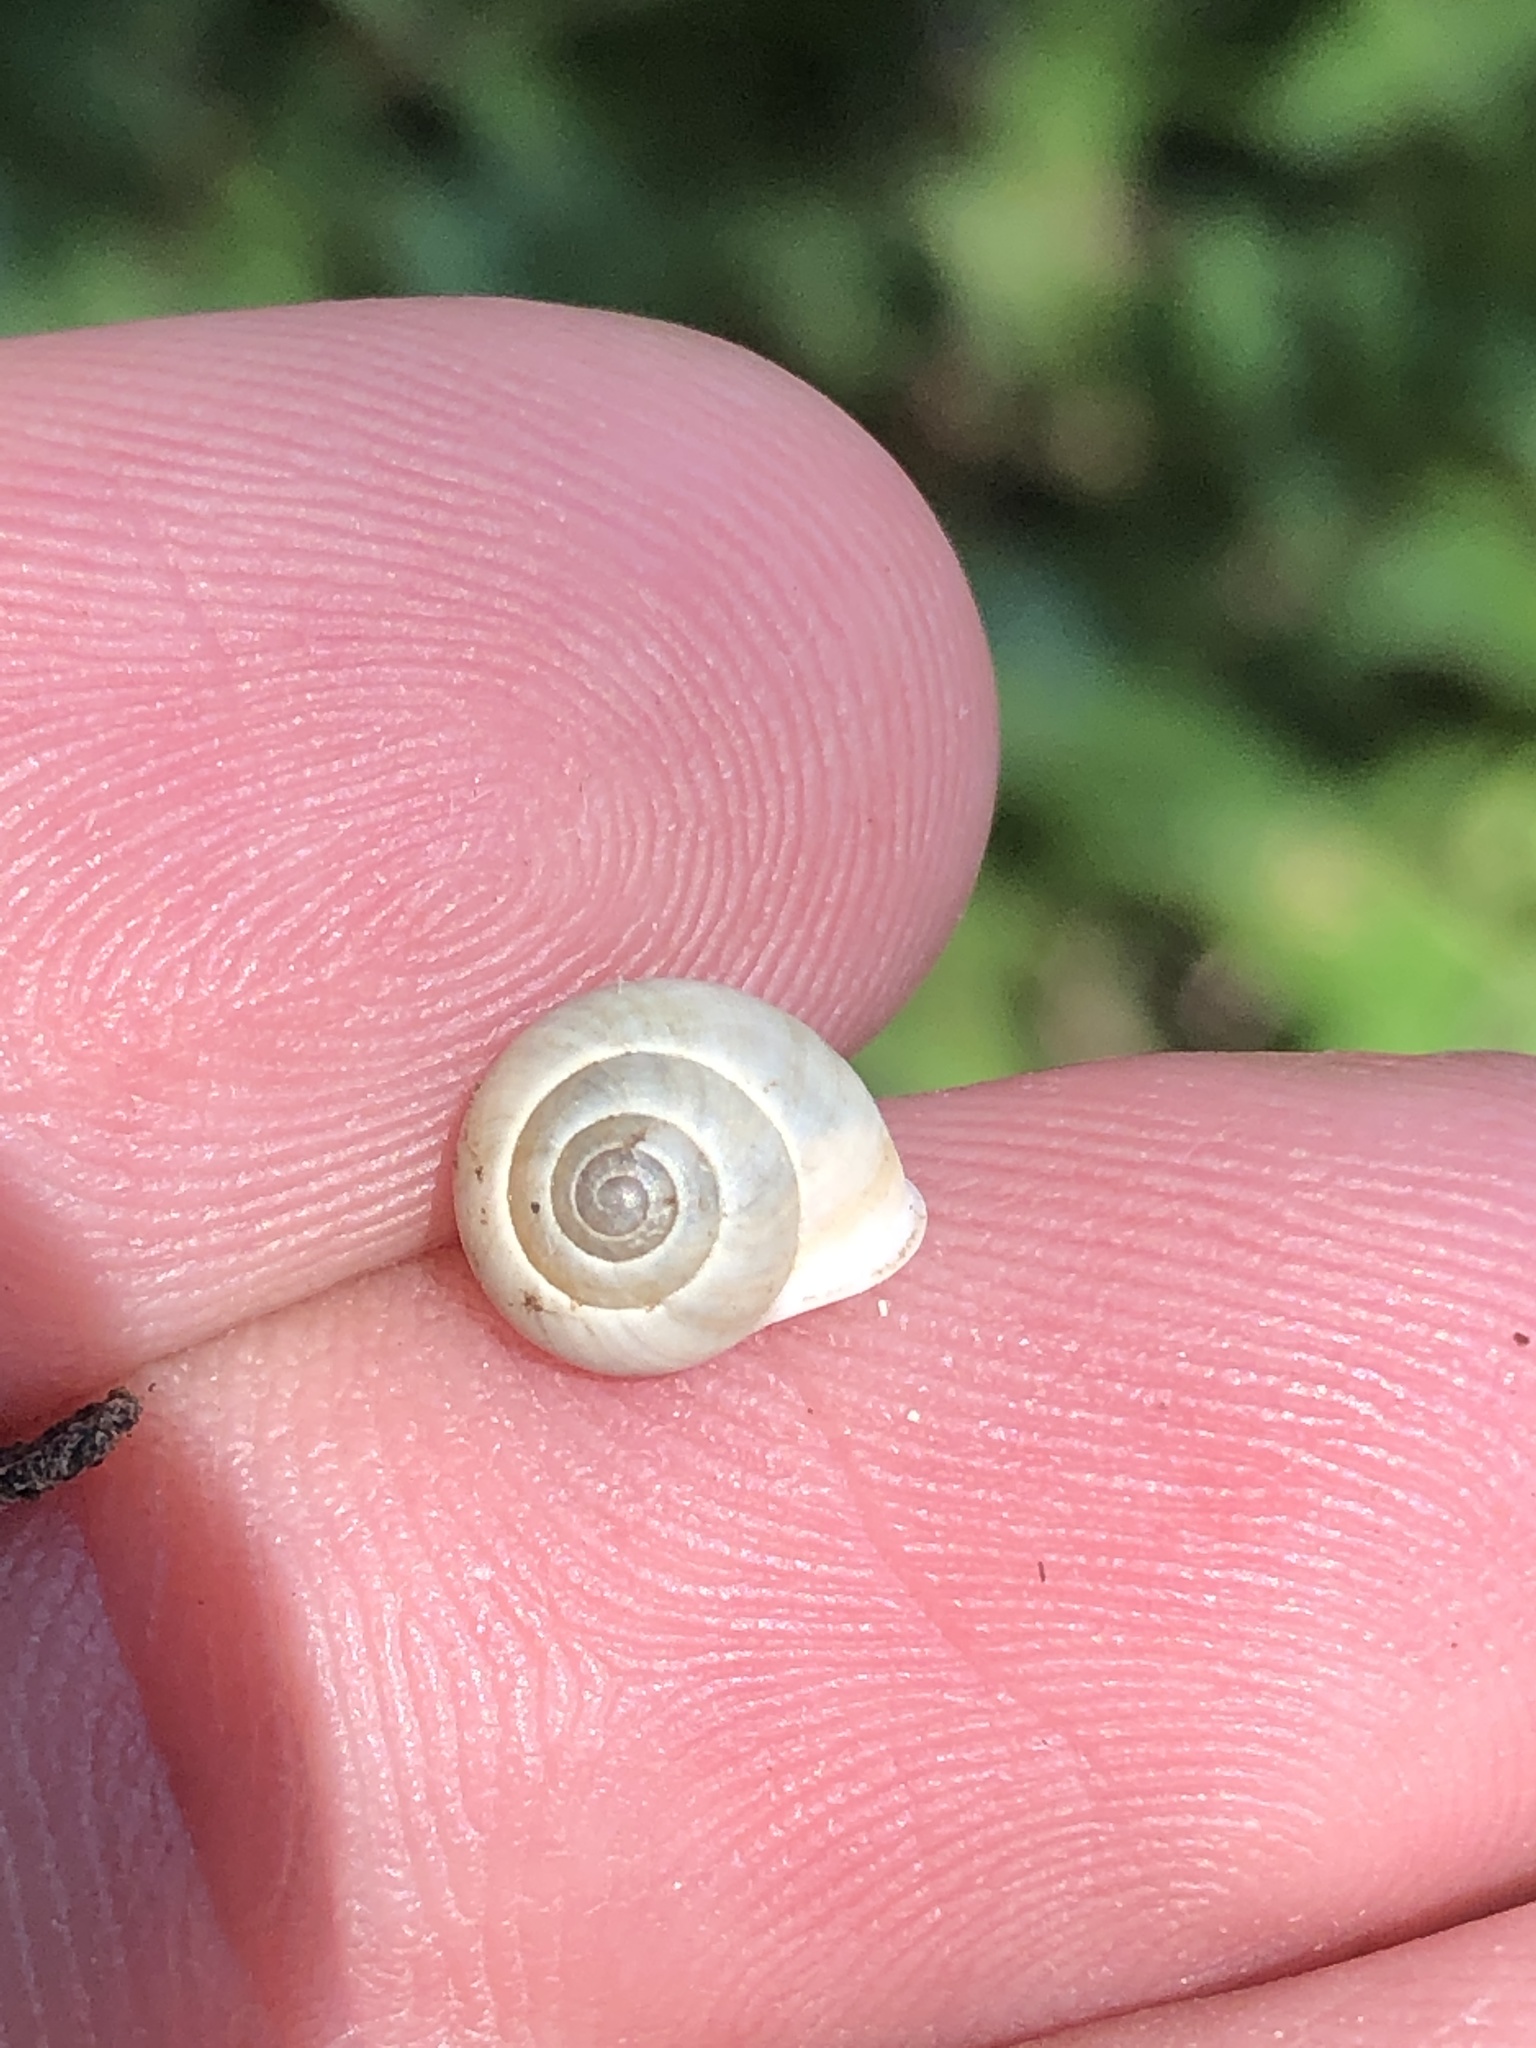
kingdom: Animalia
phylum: Mollusca
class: Gastropoda
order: Cycloneritida
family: Helicinidae
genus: Helicina
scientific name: Helicina orbiculata
